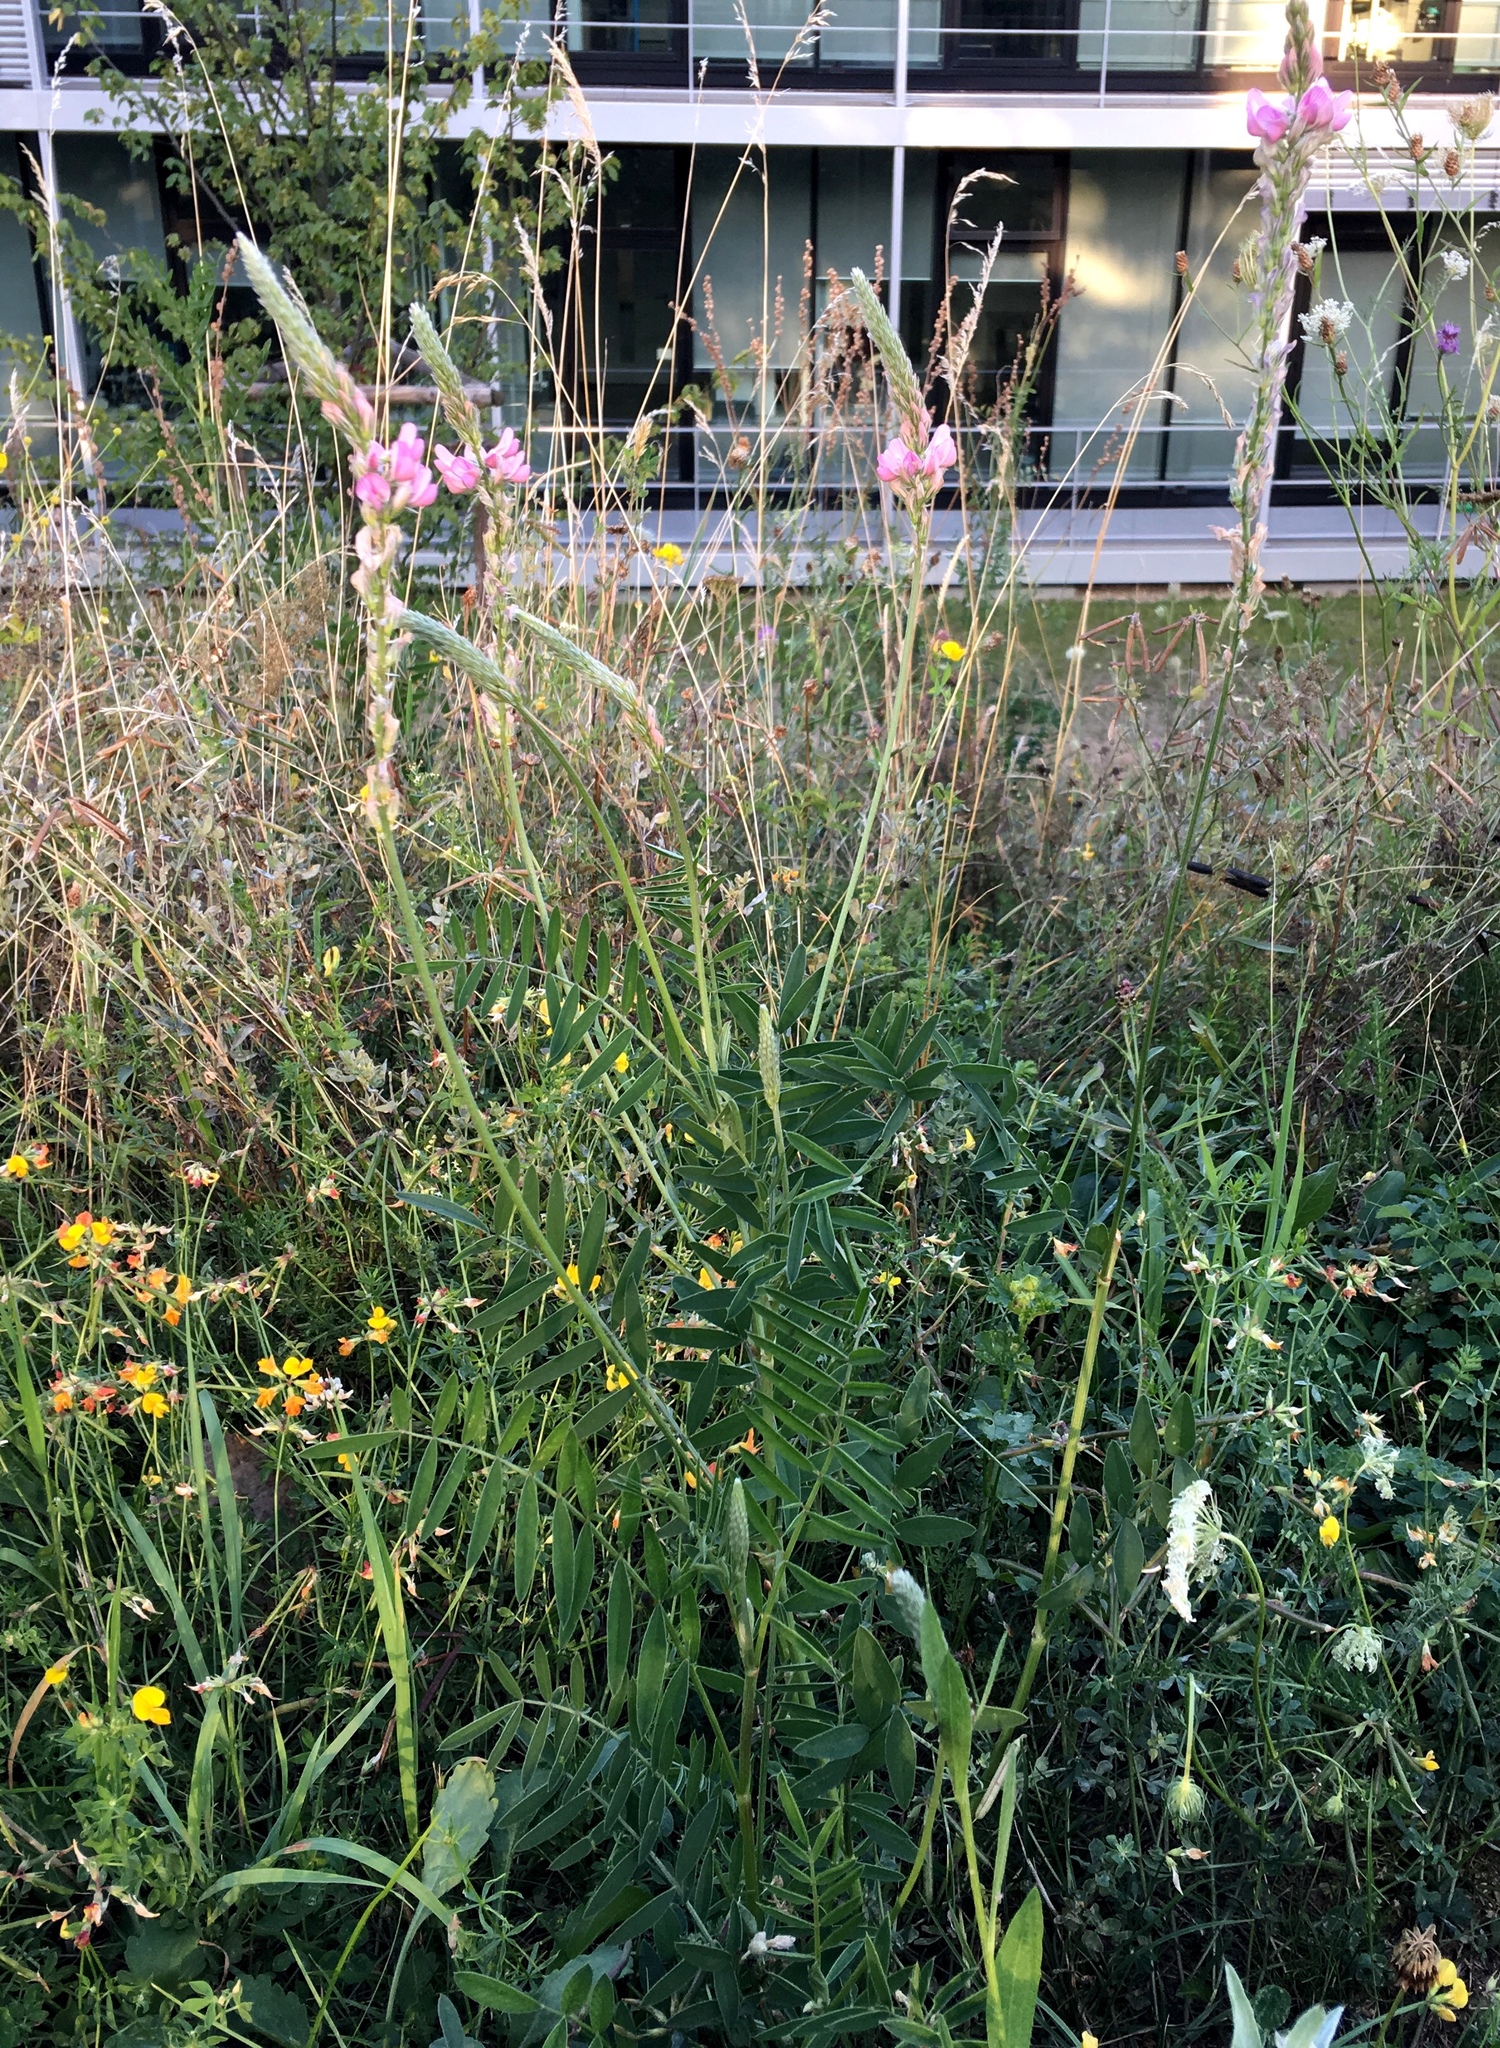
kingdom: Plantae
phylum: Tracheophyta
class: Magnoliopsida
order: Fabales
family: Fabaceae
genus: Onobrychis
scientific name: Onobrychis viciifolia
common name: Sainfoin
